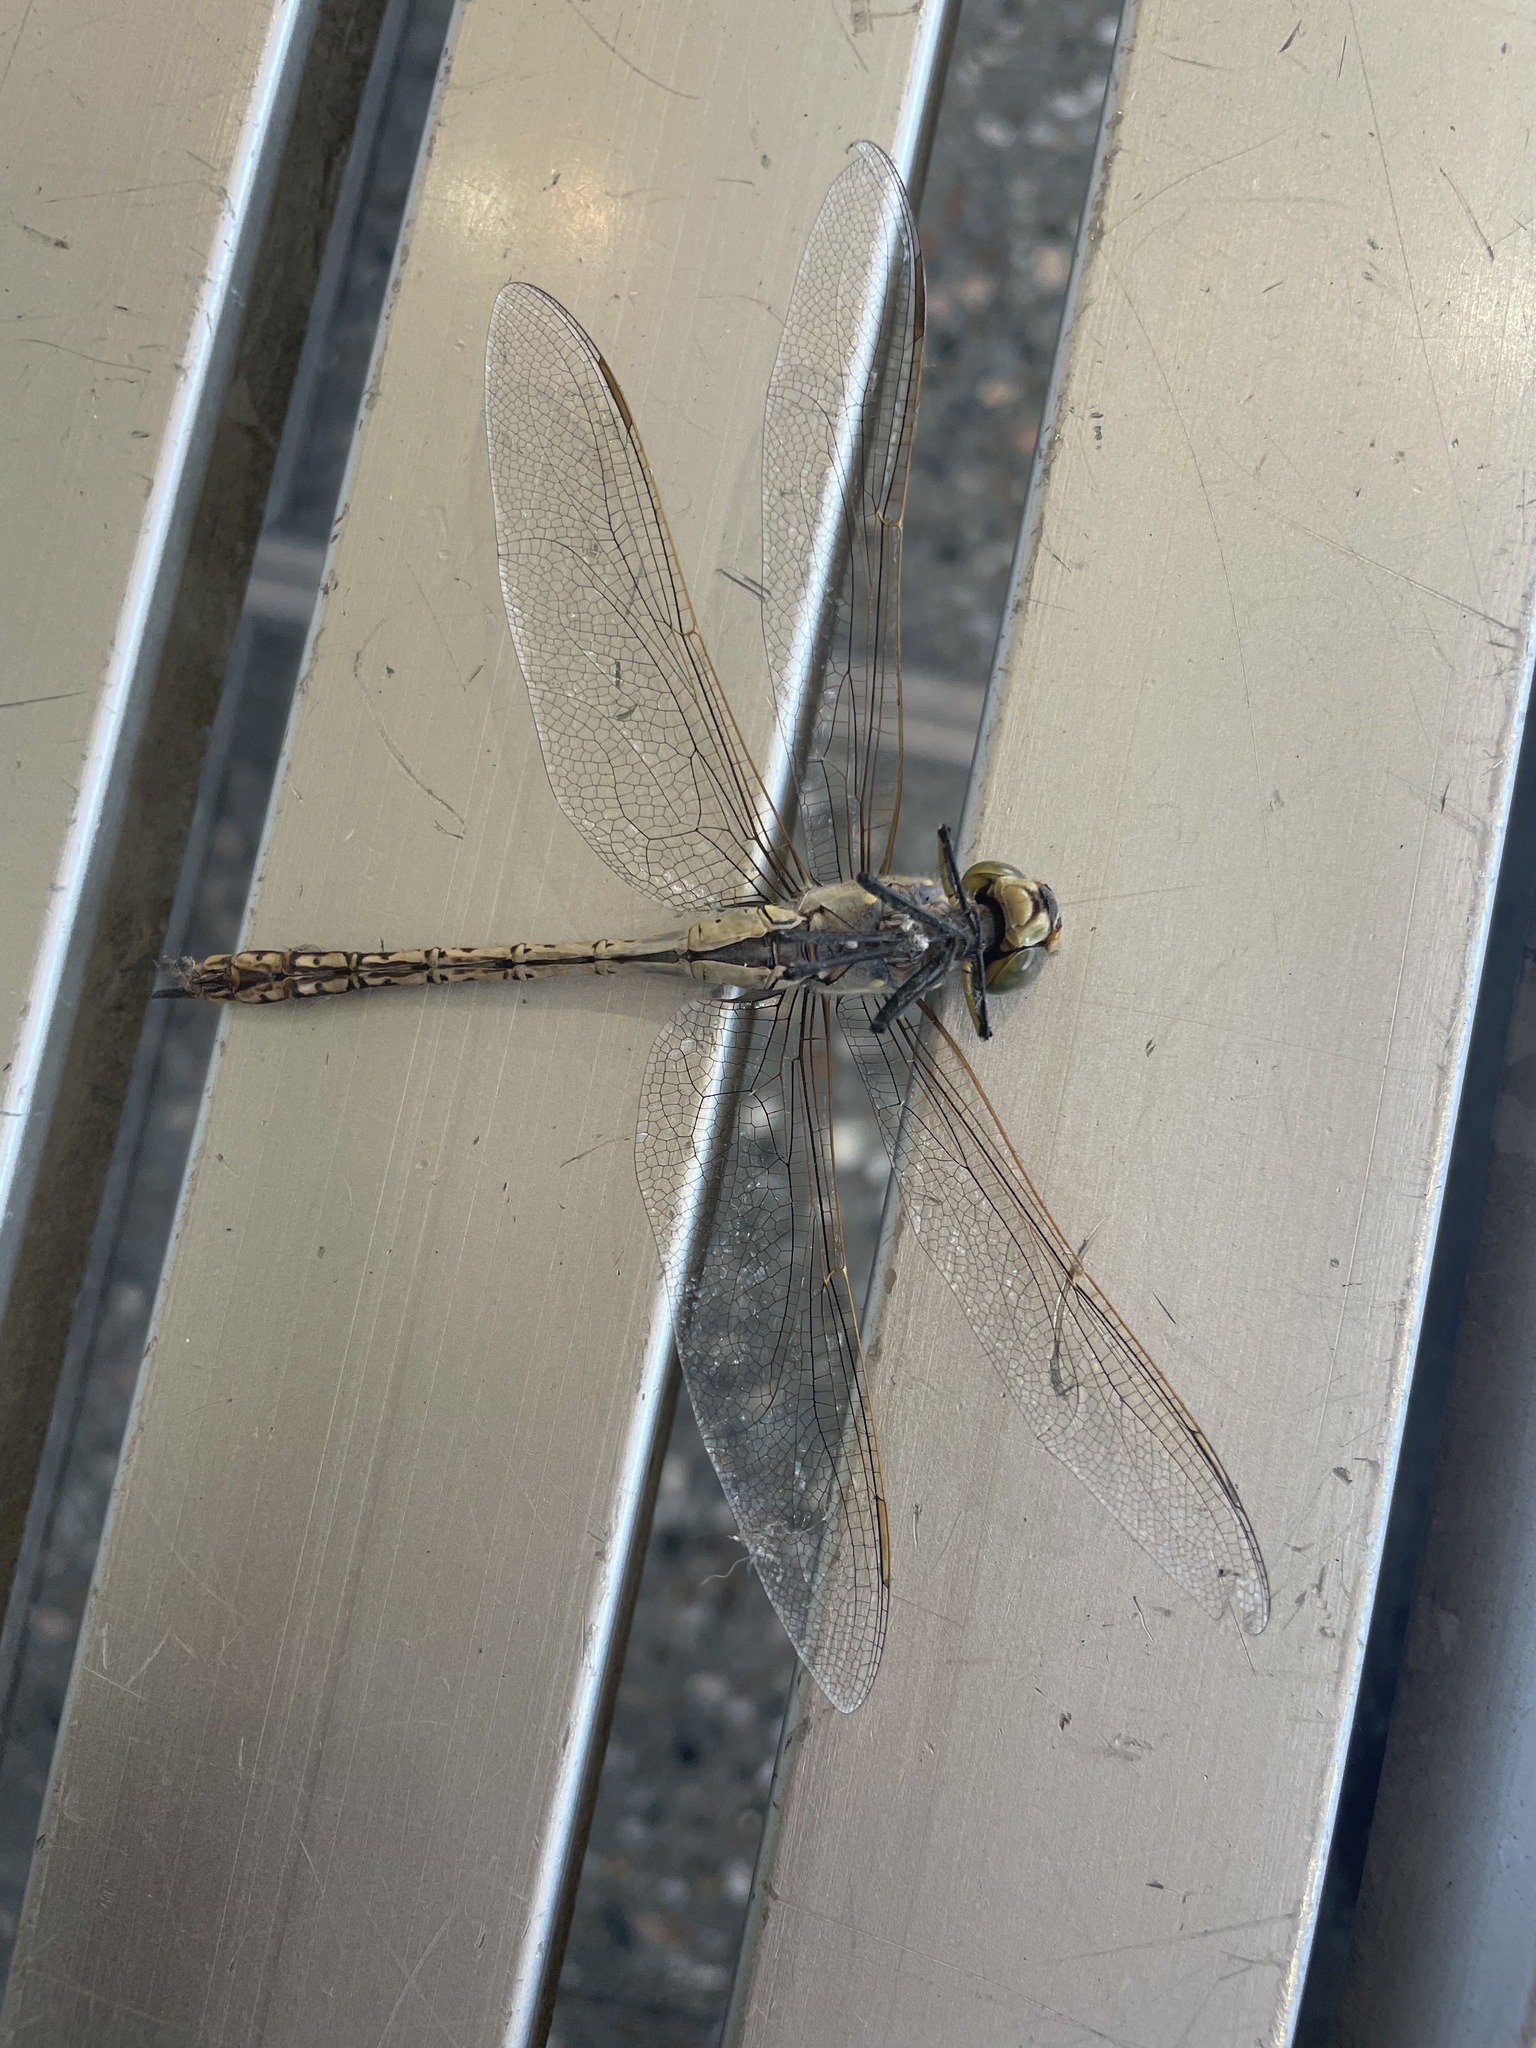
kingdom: Animalia
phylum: Arthropoda
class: Insecta
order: Odonata
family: Aeshnidae
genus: Anax
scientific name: Anax papuensis
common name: Australian emperor
